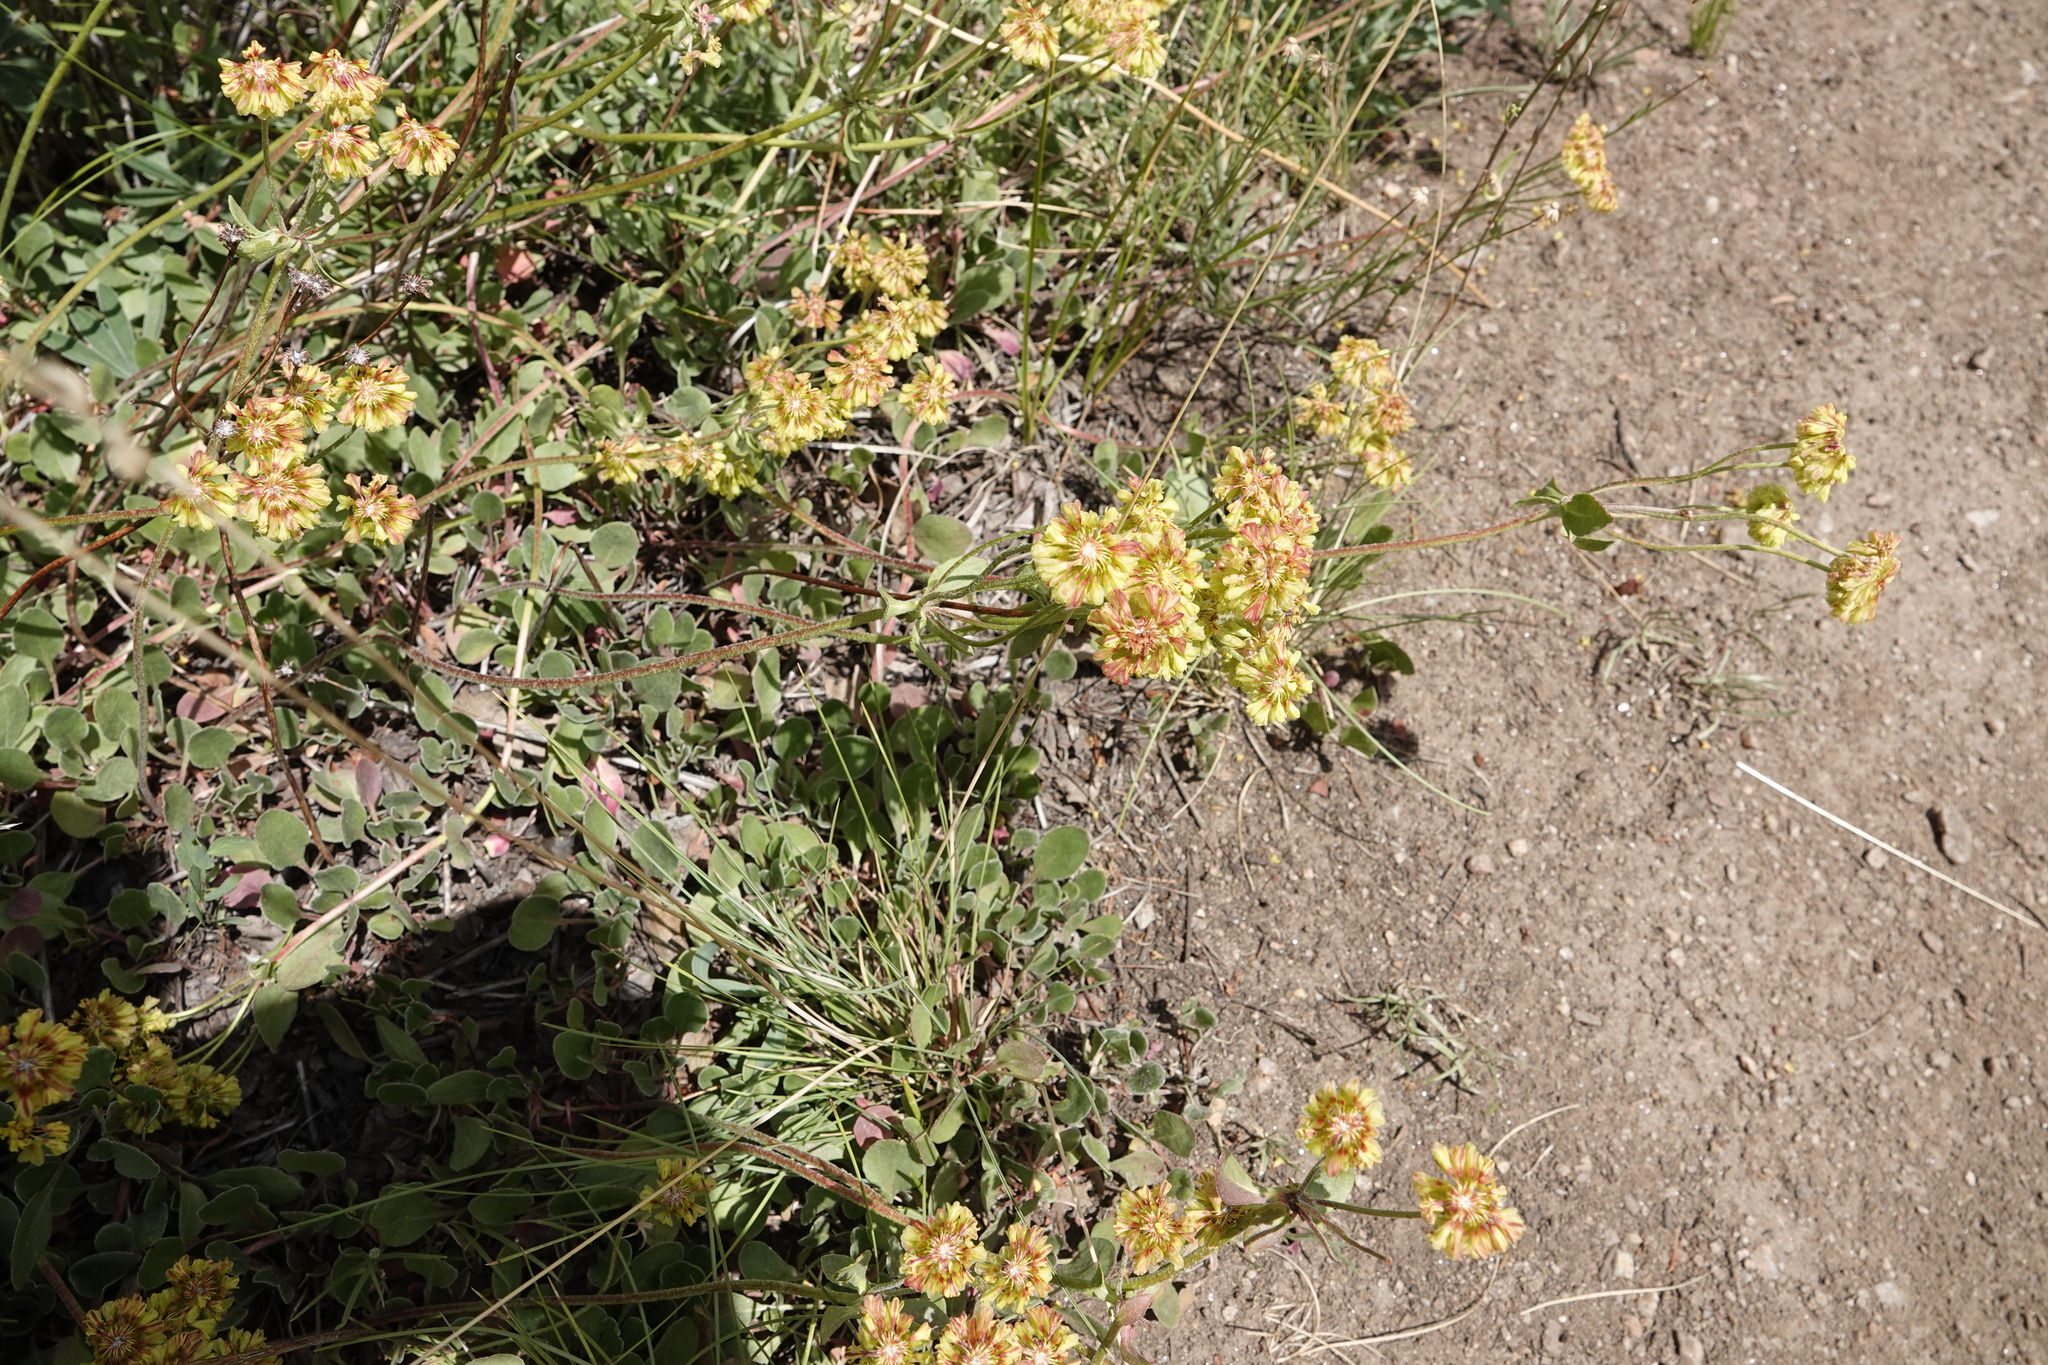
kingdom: Plantae
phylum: Tracheophyta
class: Magnoliopsida
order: Caryophyllales
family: Polygonaceae
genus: Eriogonum
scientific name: Eriogonum umbellatum
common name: Sulfur-buckwheat
